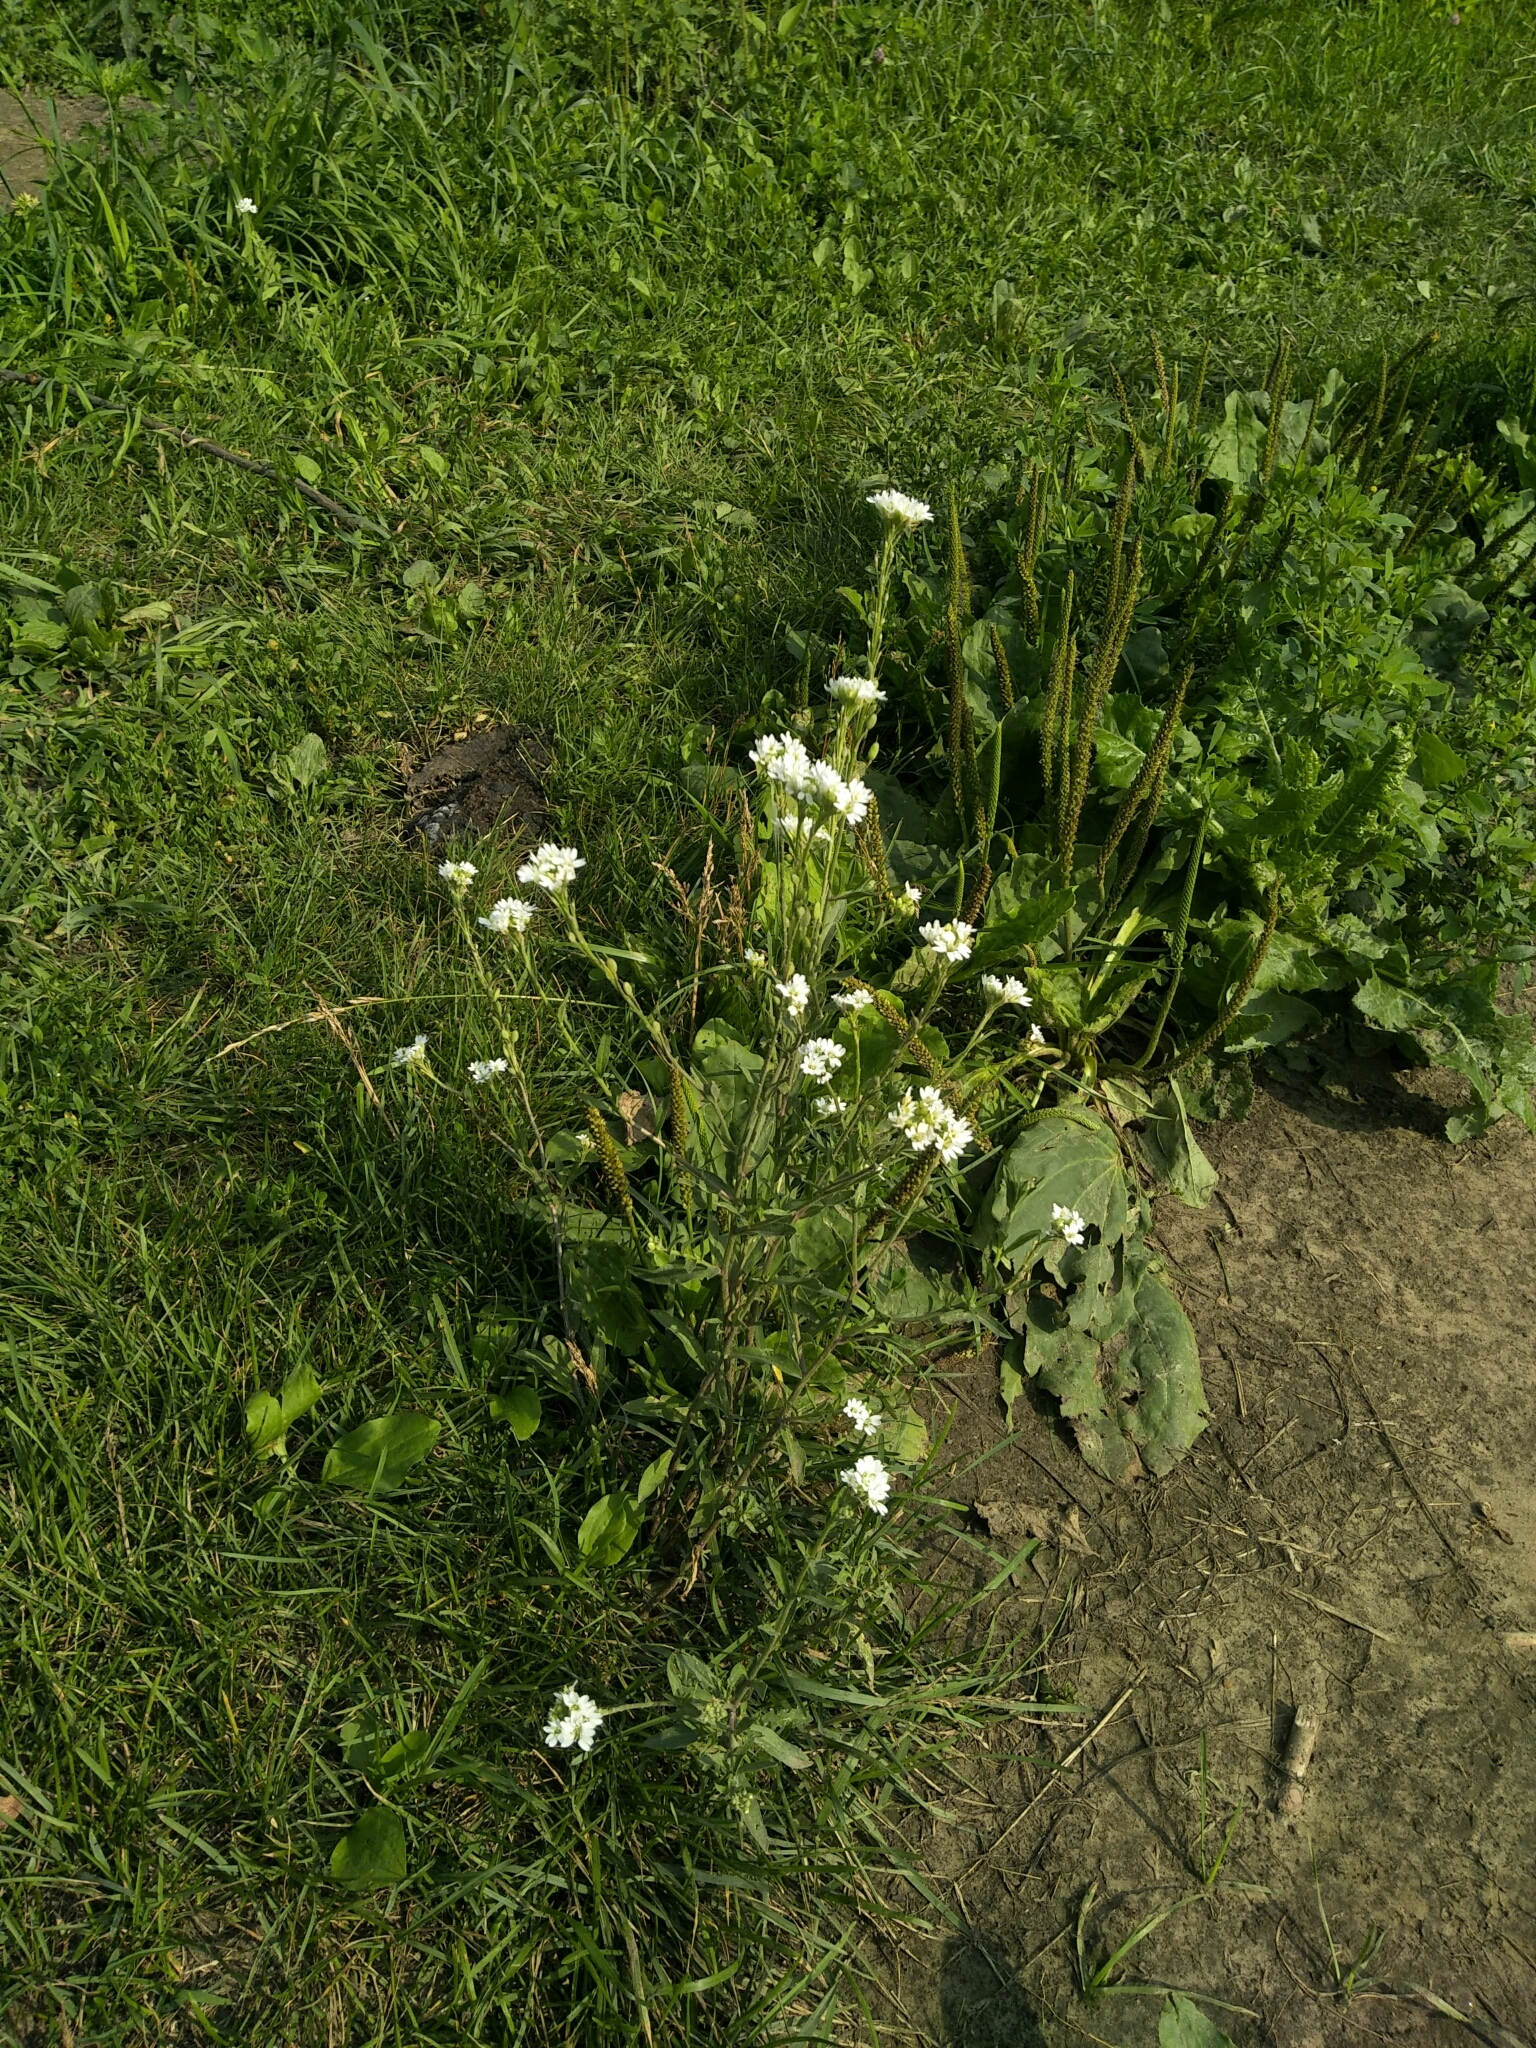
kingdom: Plantae
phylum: Tracheophyta
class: Magnoliopsida
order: Brassicales
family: Brassicaceae
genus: Berteroa
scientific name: Berteroa incana
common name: Hoary alison
